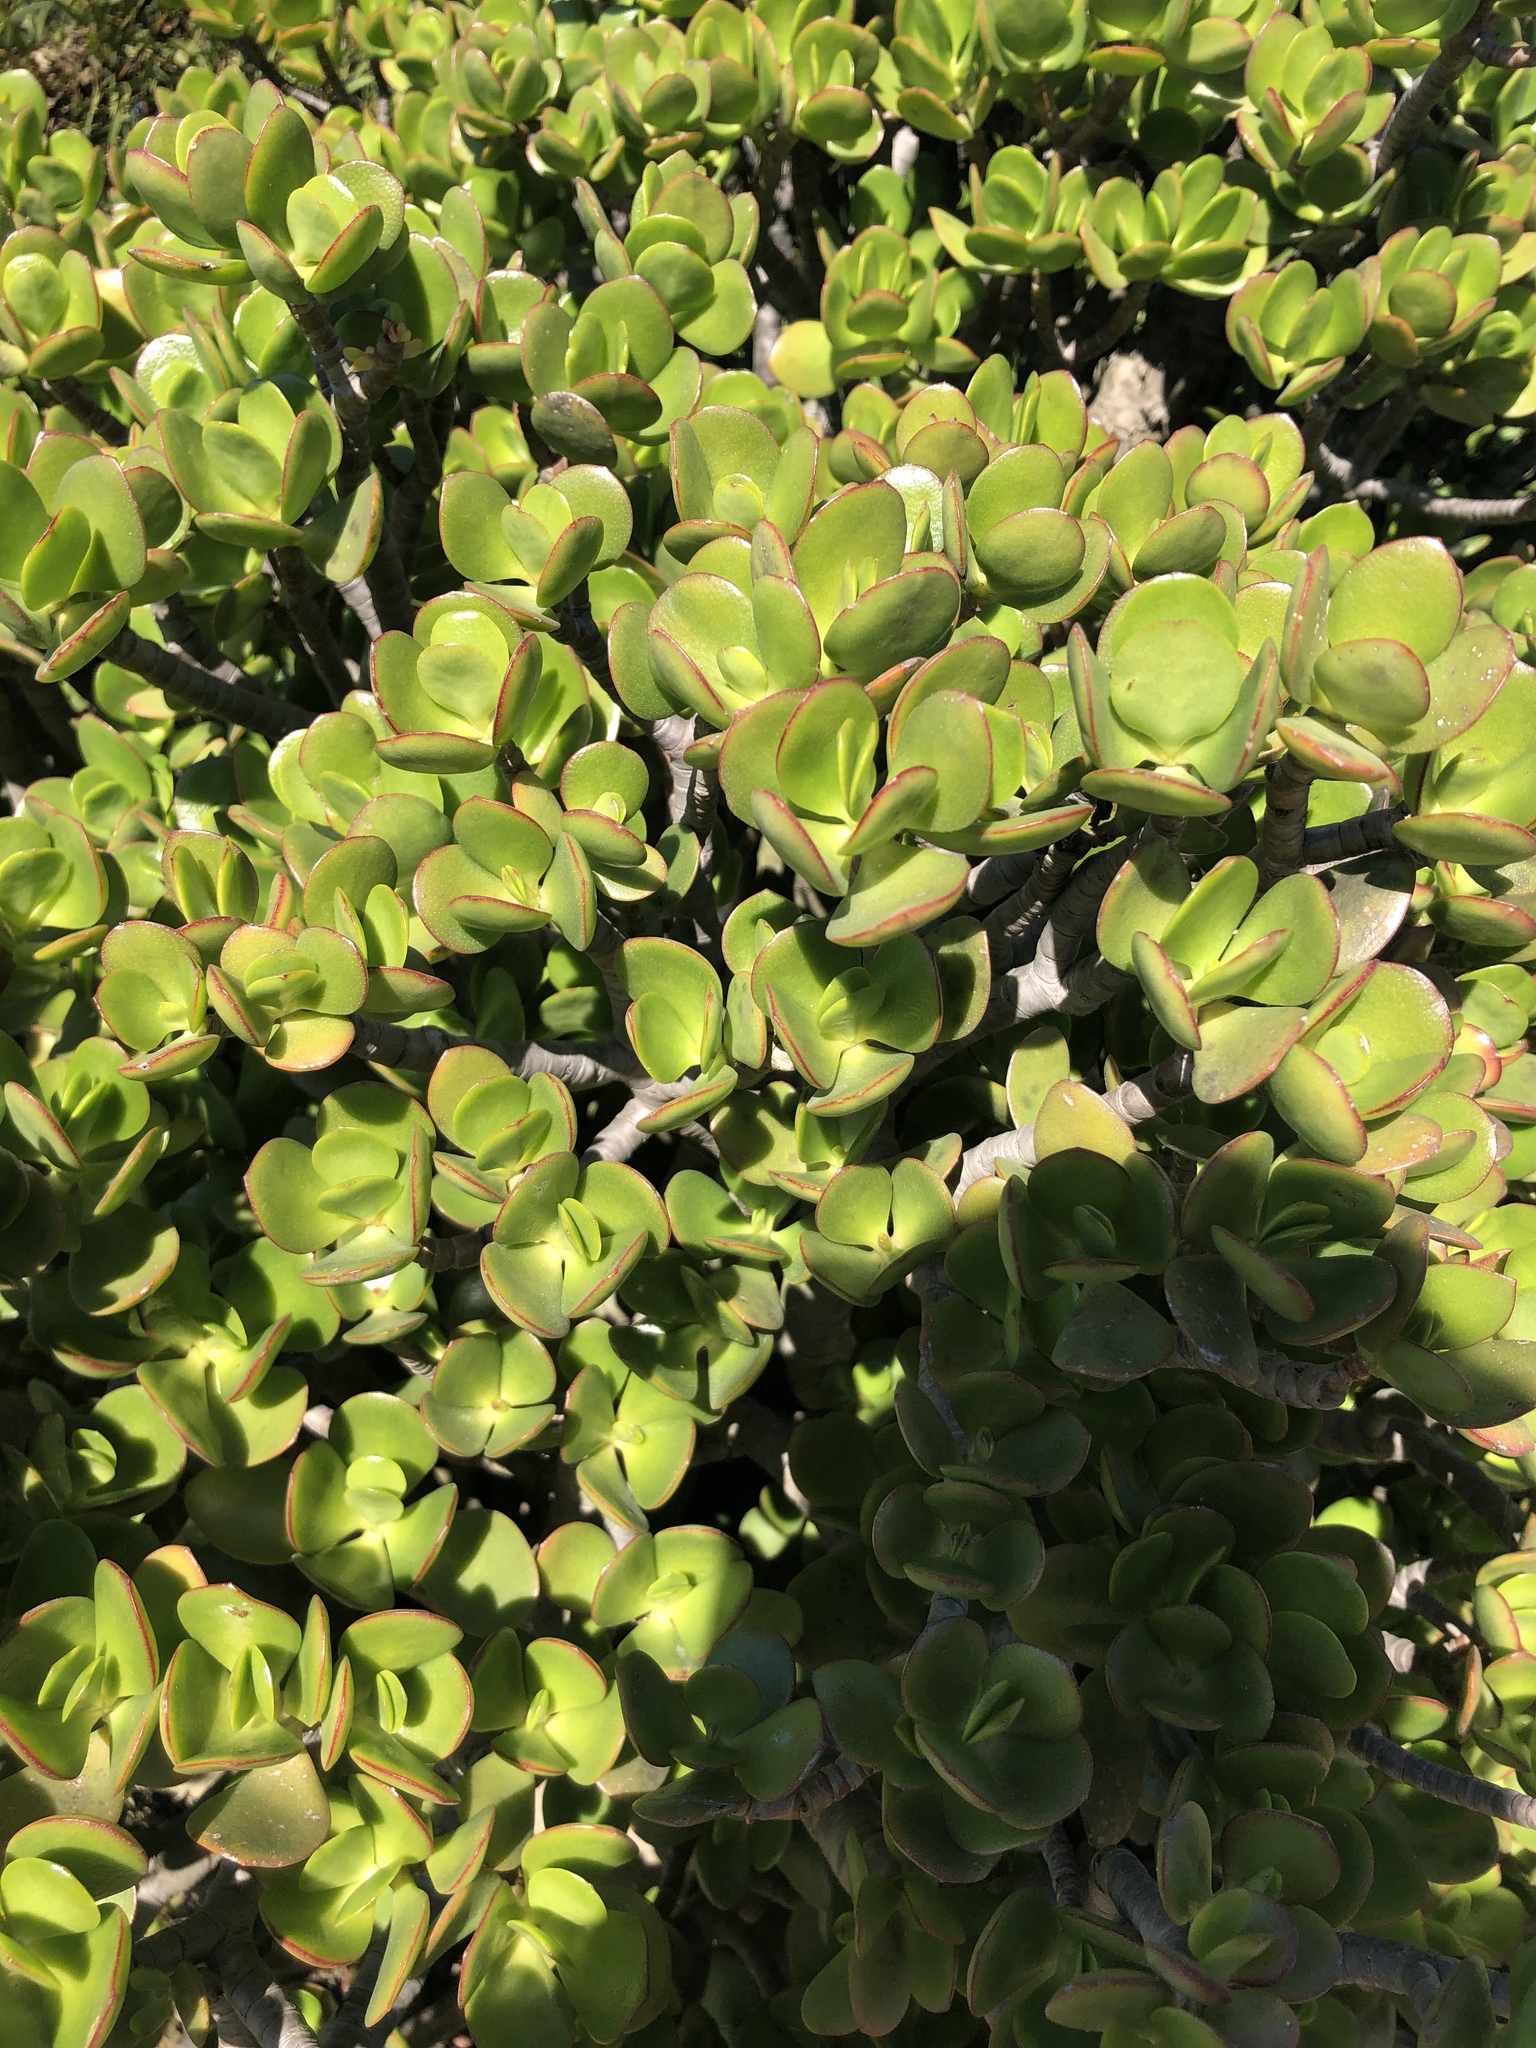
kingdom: Plantae
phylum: Tracheophyta
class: Magnoliopsida
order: Saxifragales
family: Crassulaceae
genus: Crassula
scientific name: Crassula ovata
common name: Jade plant
